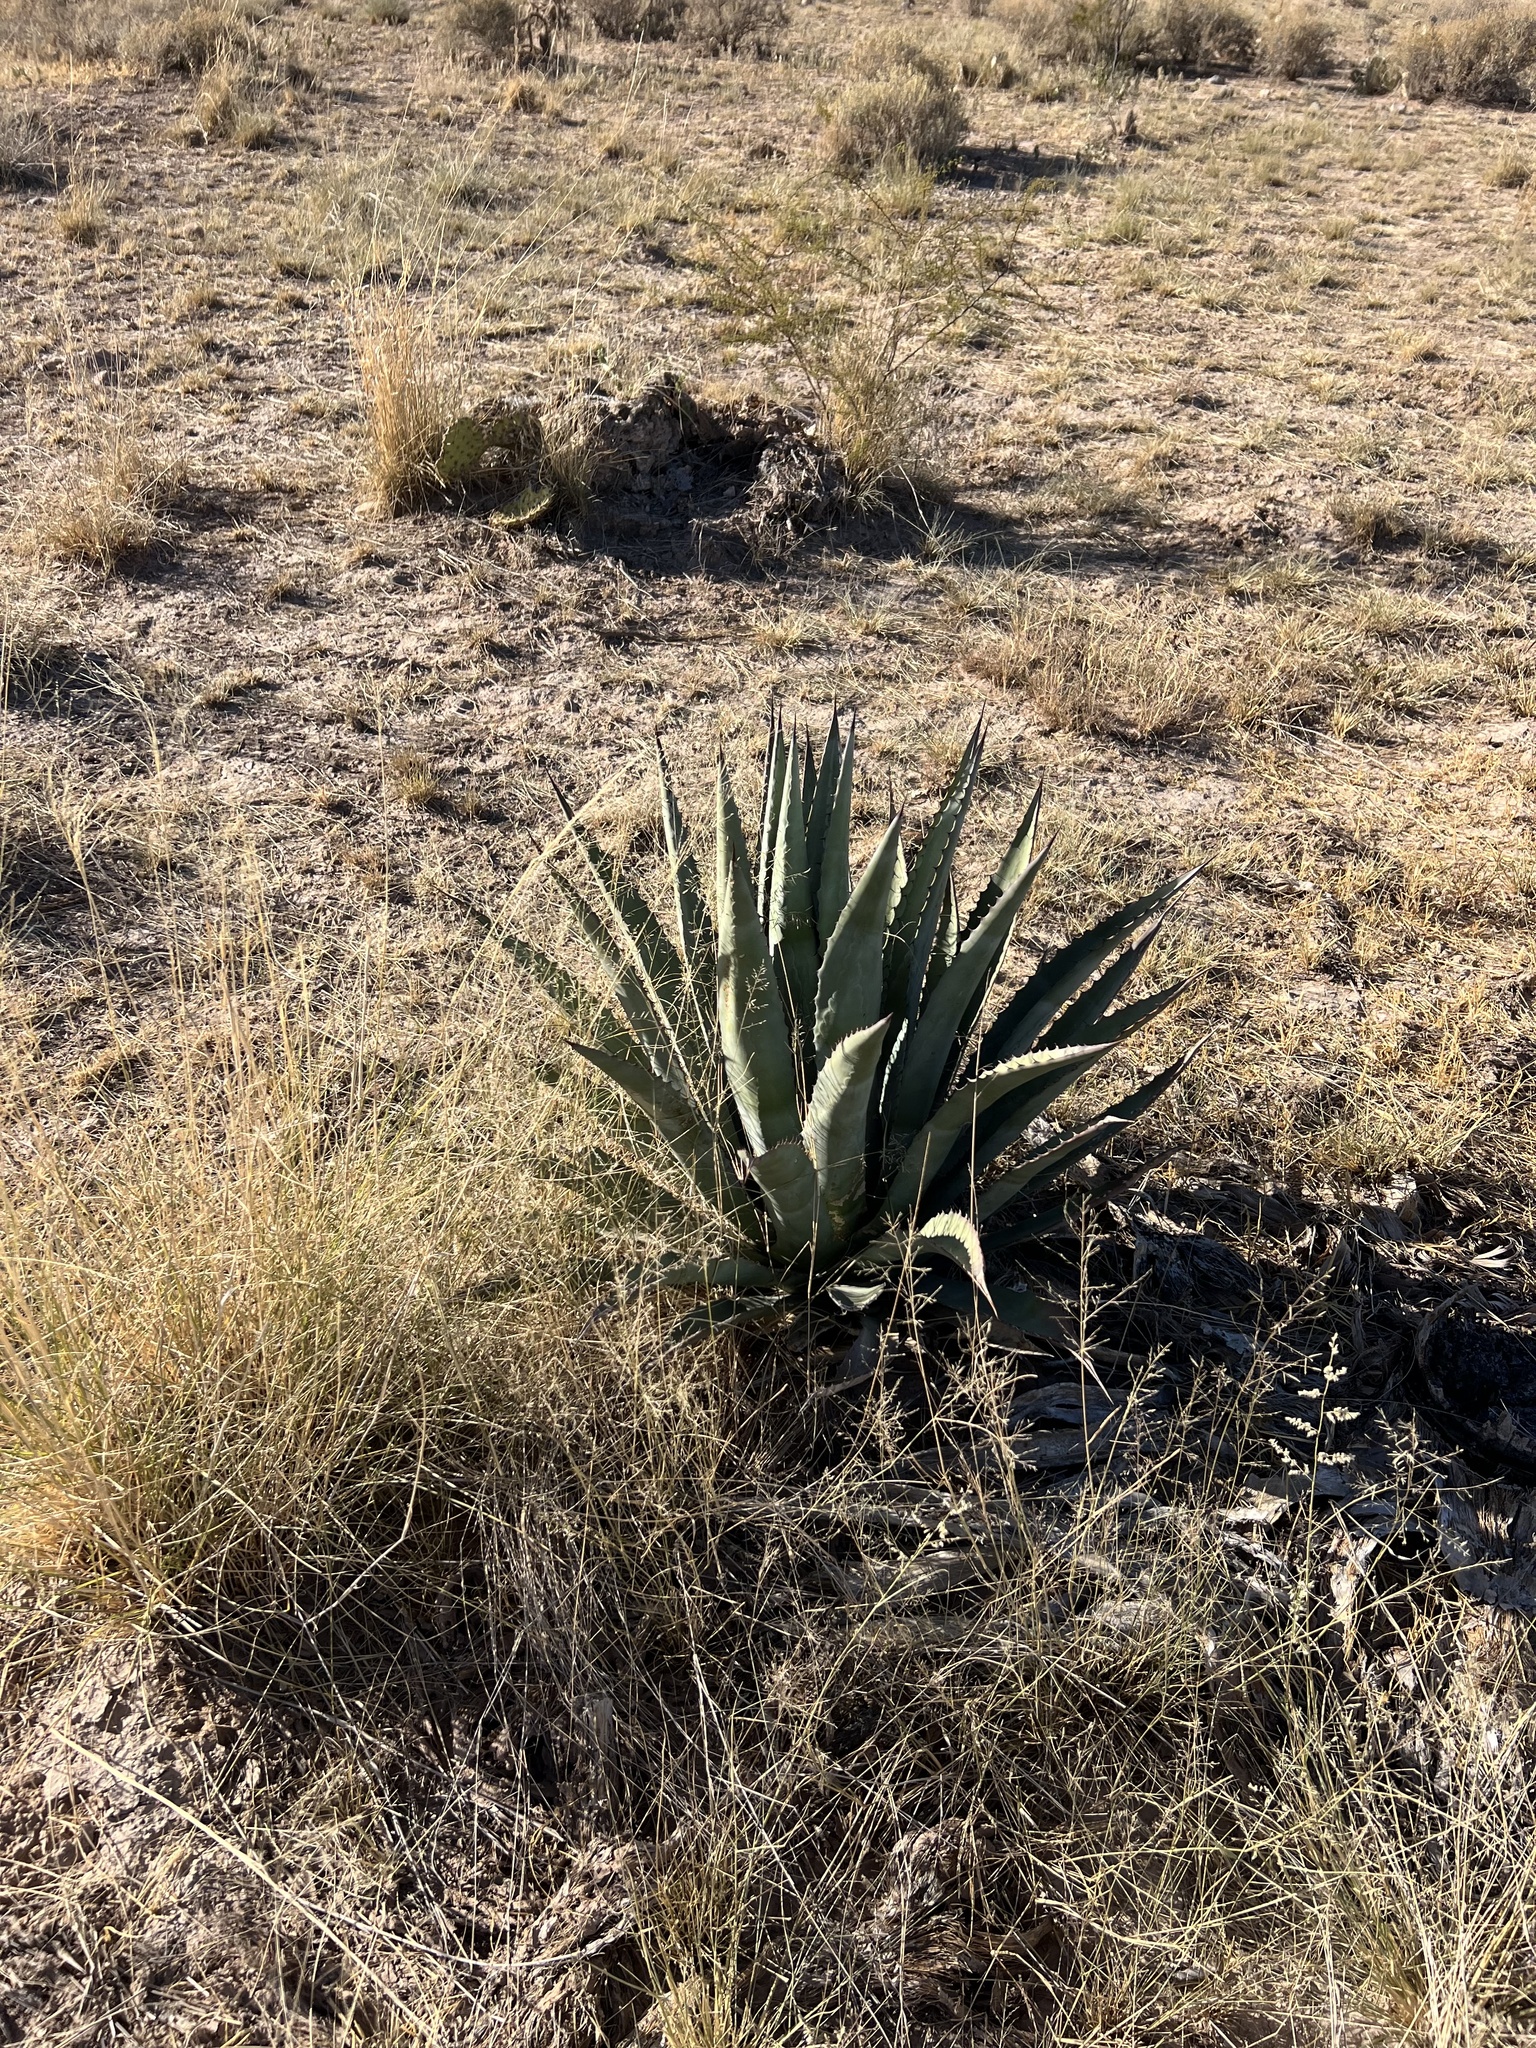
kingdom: Plantae
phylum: Tracheophyta
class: Liliopsida
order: Asparagales
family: Asparagaceae
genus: Agave
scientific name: Agave palmeri
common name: Palmer agave
